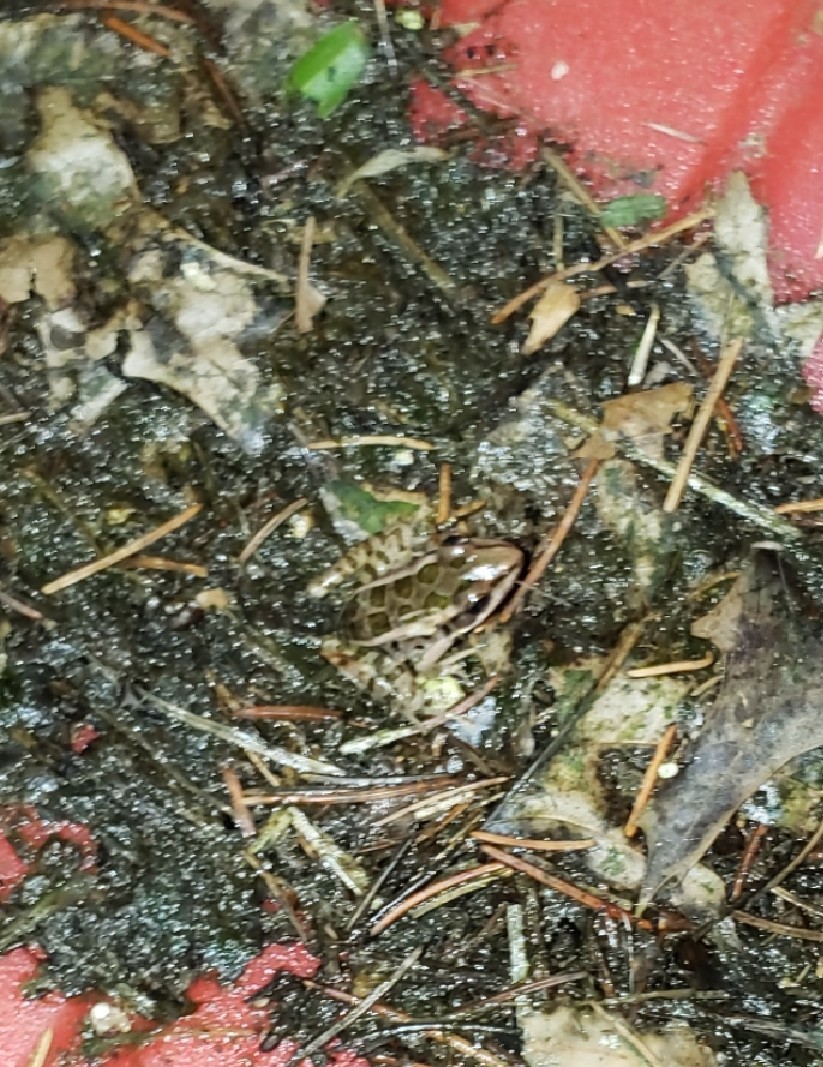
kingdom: Animalia
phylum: Chordata
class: Amphibia
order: Anura
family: Ranidae
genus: Lithobates
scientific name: Lithobates palustris
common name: Pickerel frog
